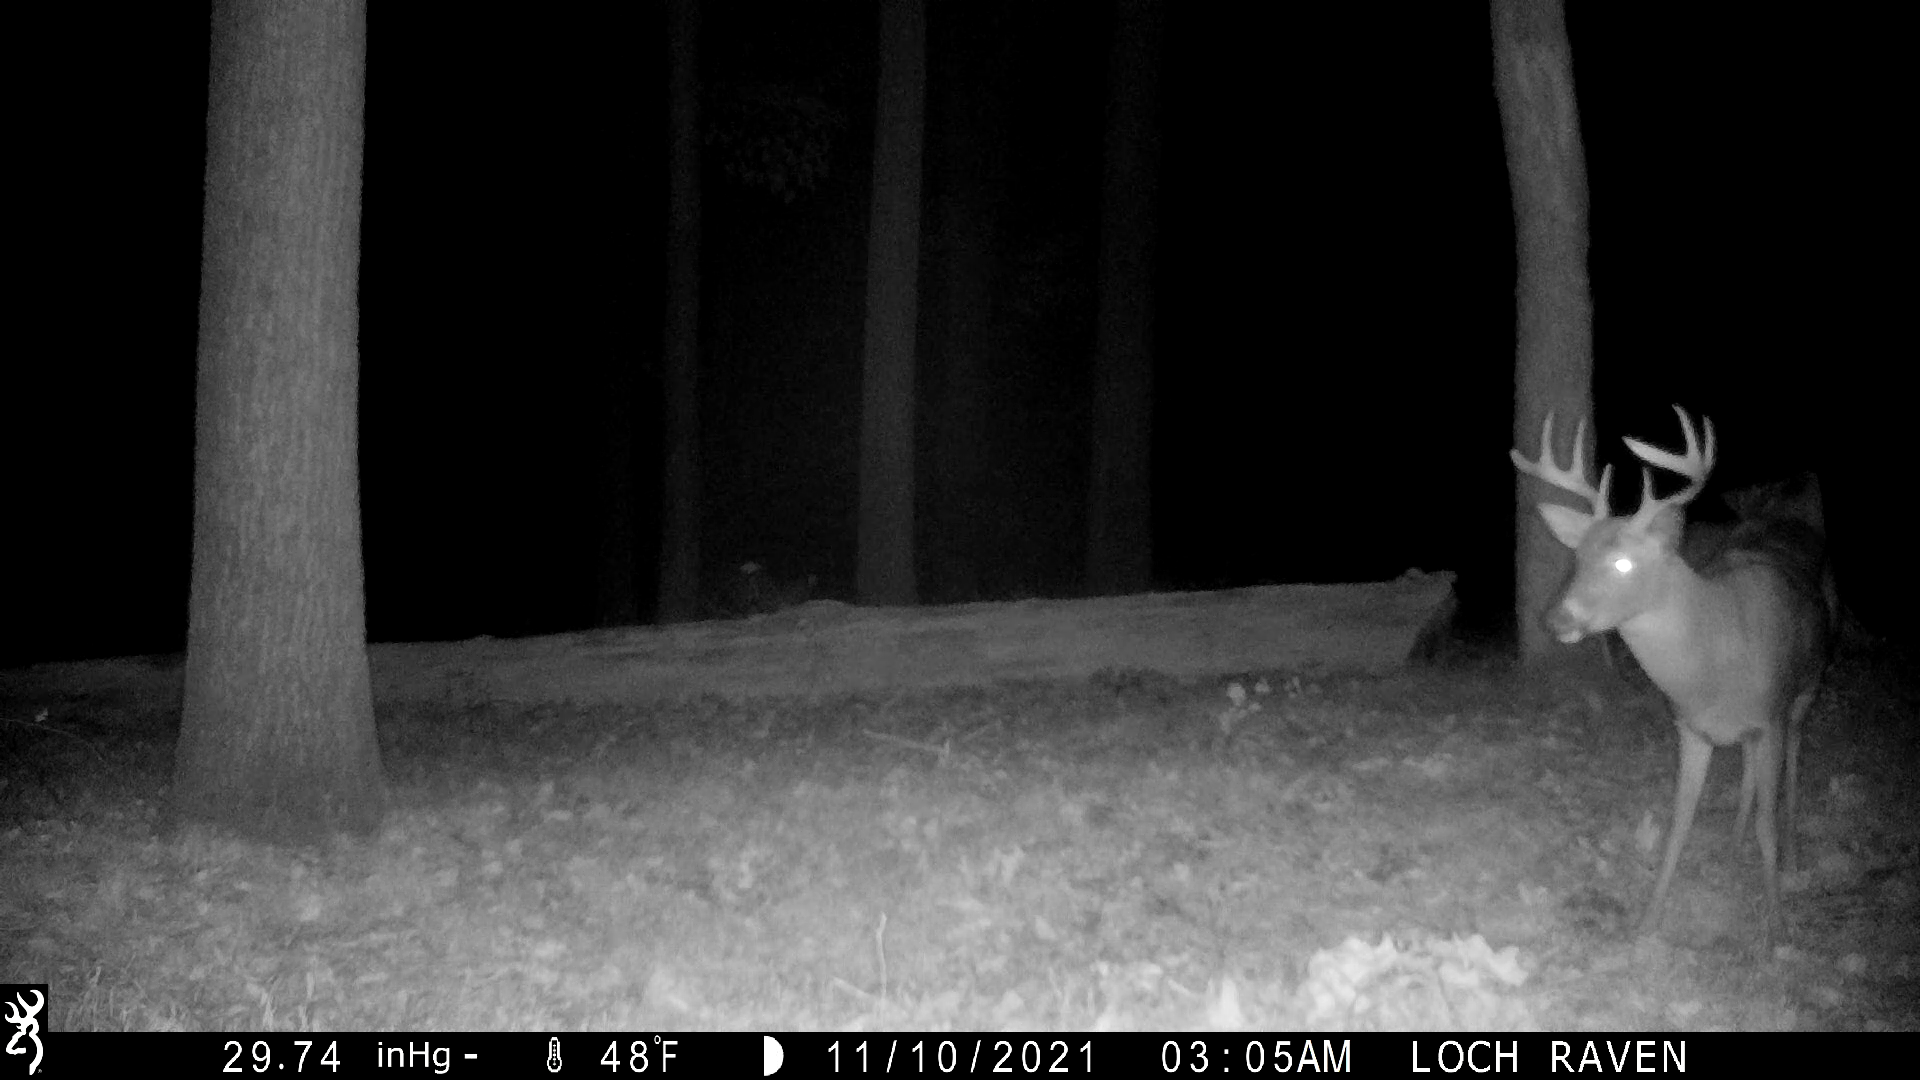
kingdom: Animalia
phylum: Chordata
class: Mammalia
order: Artiodactyla
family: Cervidae
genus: Odocoileus
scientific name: Odocoileus virginianus
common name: White-tailed deer
